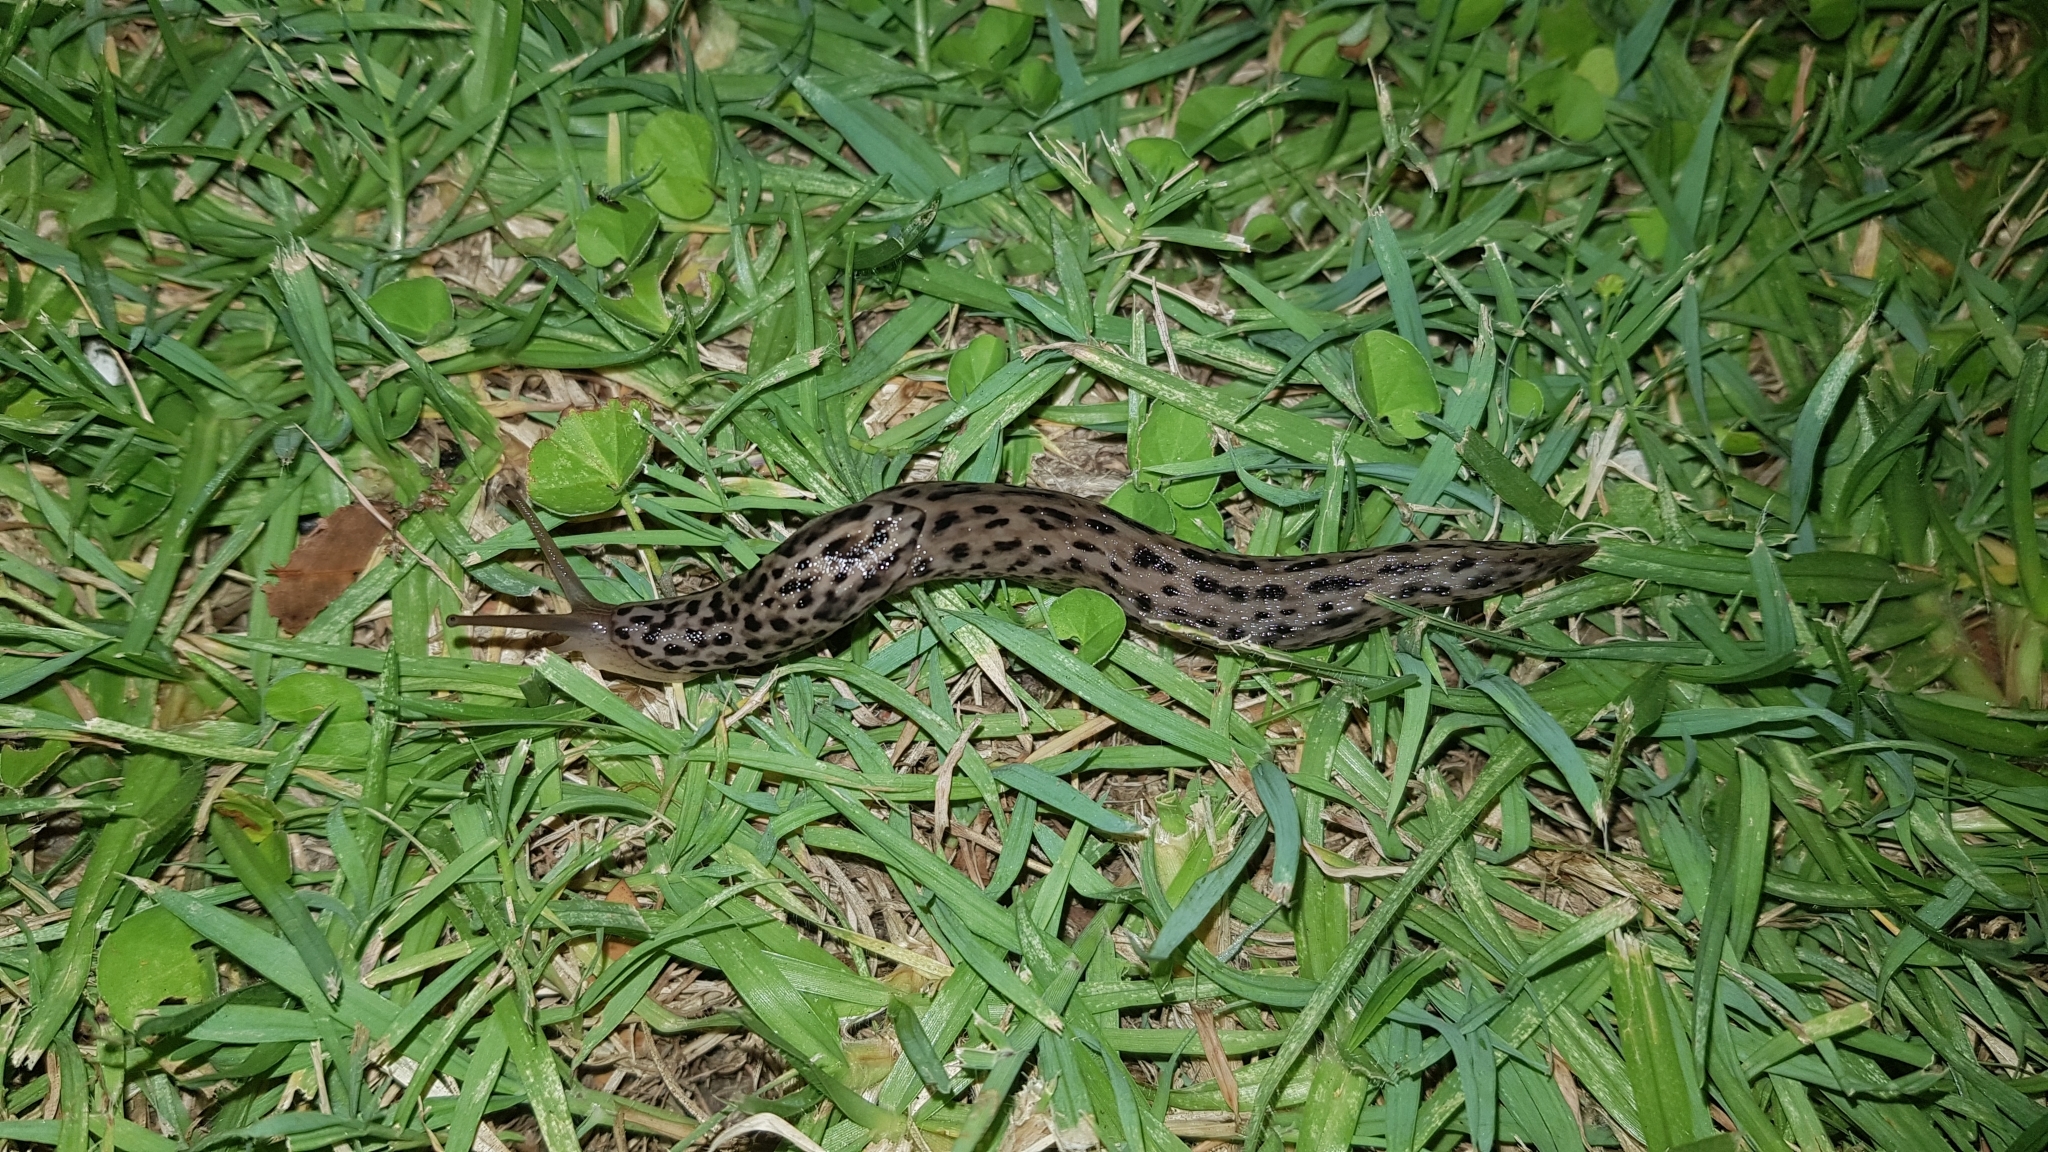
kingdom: Animalia
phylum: Mollusca
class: Gastropoda
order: Stylommatophora
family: Limacidae
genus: Limax
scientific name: Limax maximus
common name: Great grey slug
